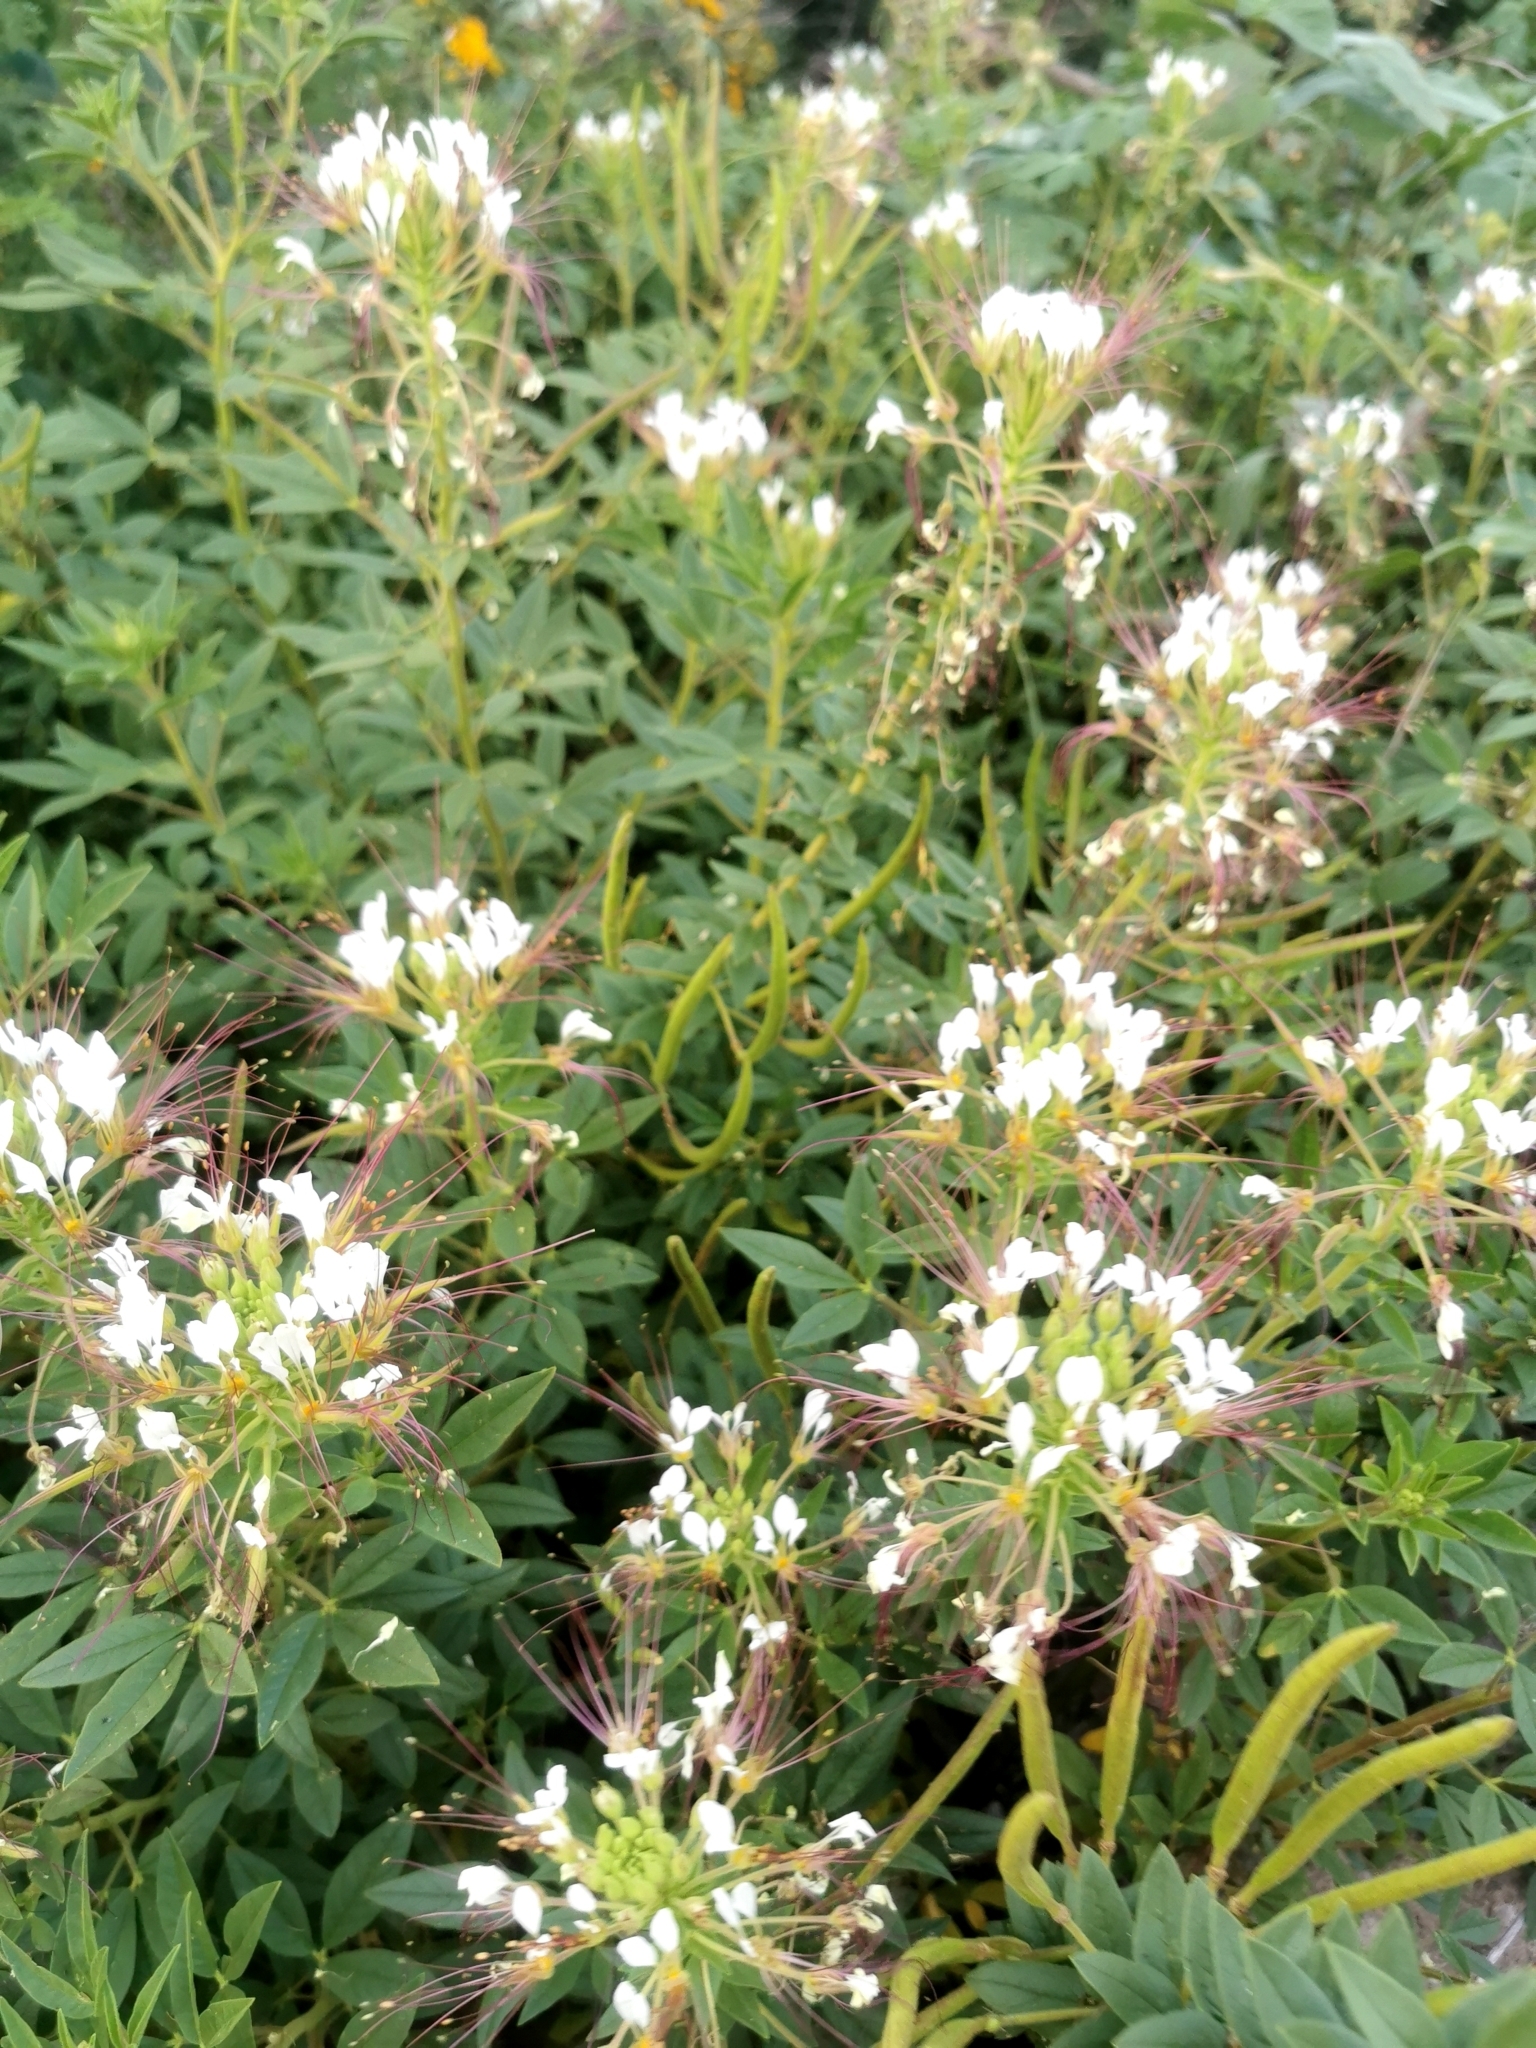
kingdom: Plantae
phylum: Tracheophyta
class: Magnoliopsida
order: Brassicales
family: Cleomaceae
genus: Polanisia
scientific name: Polanisia dodecandra
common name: Clammyweed
